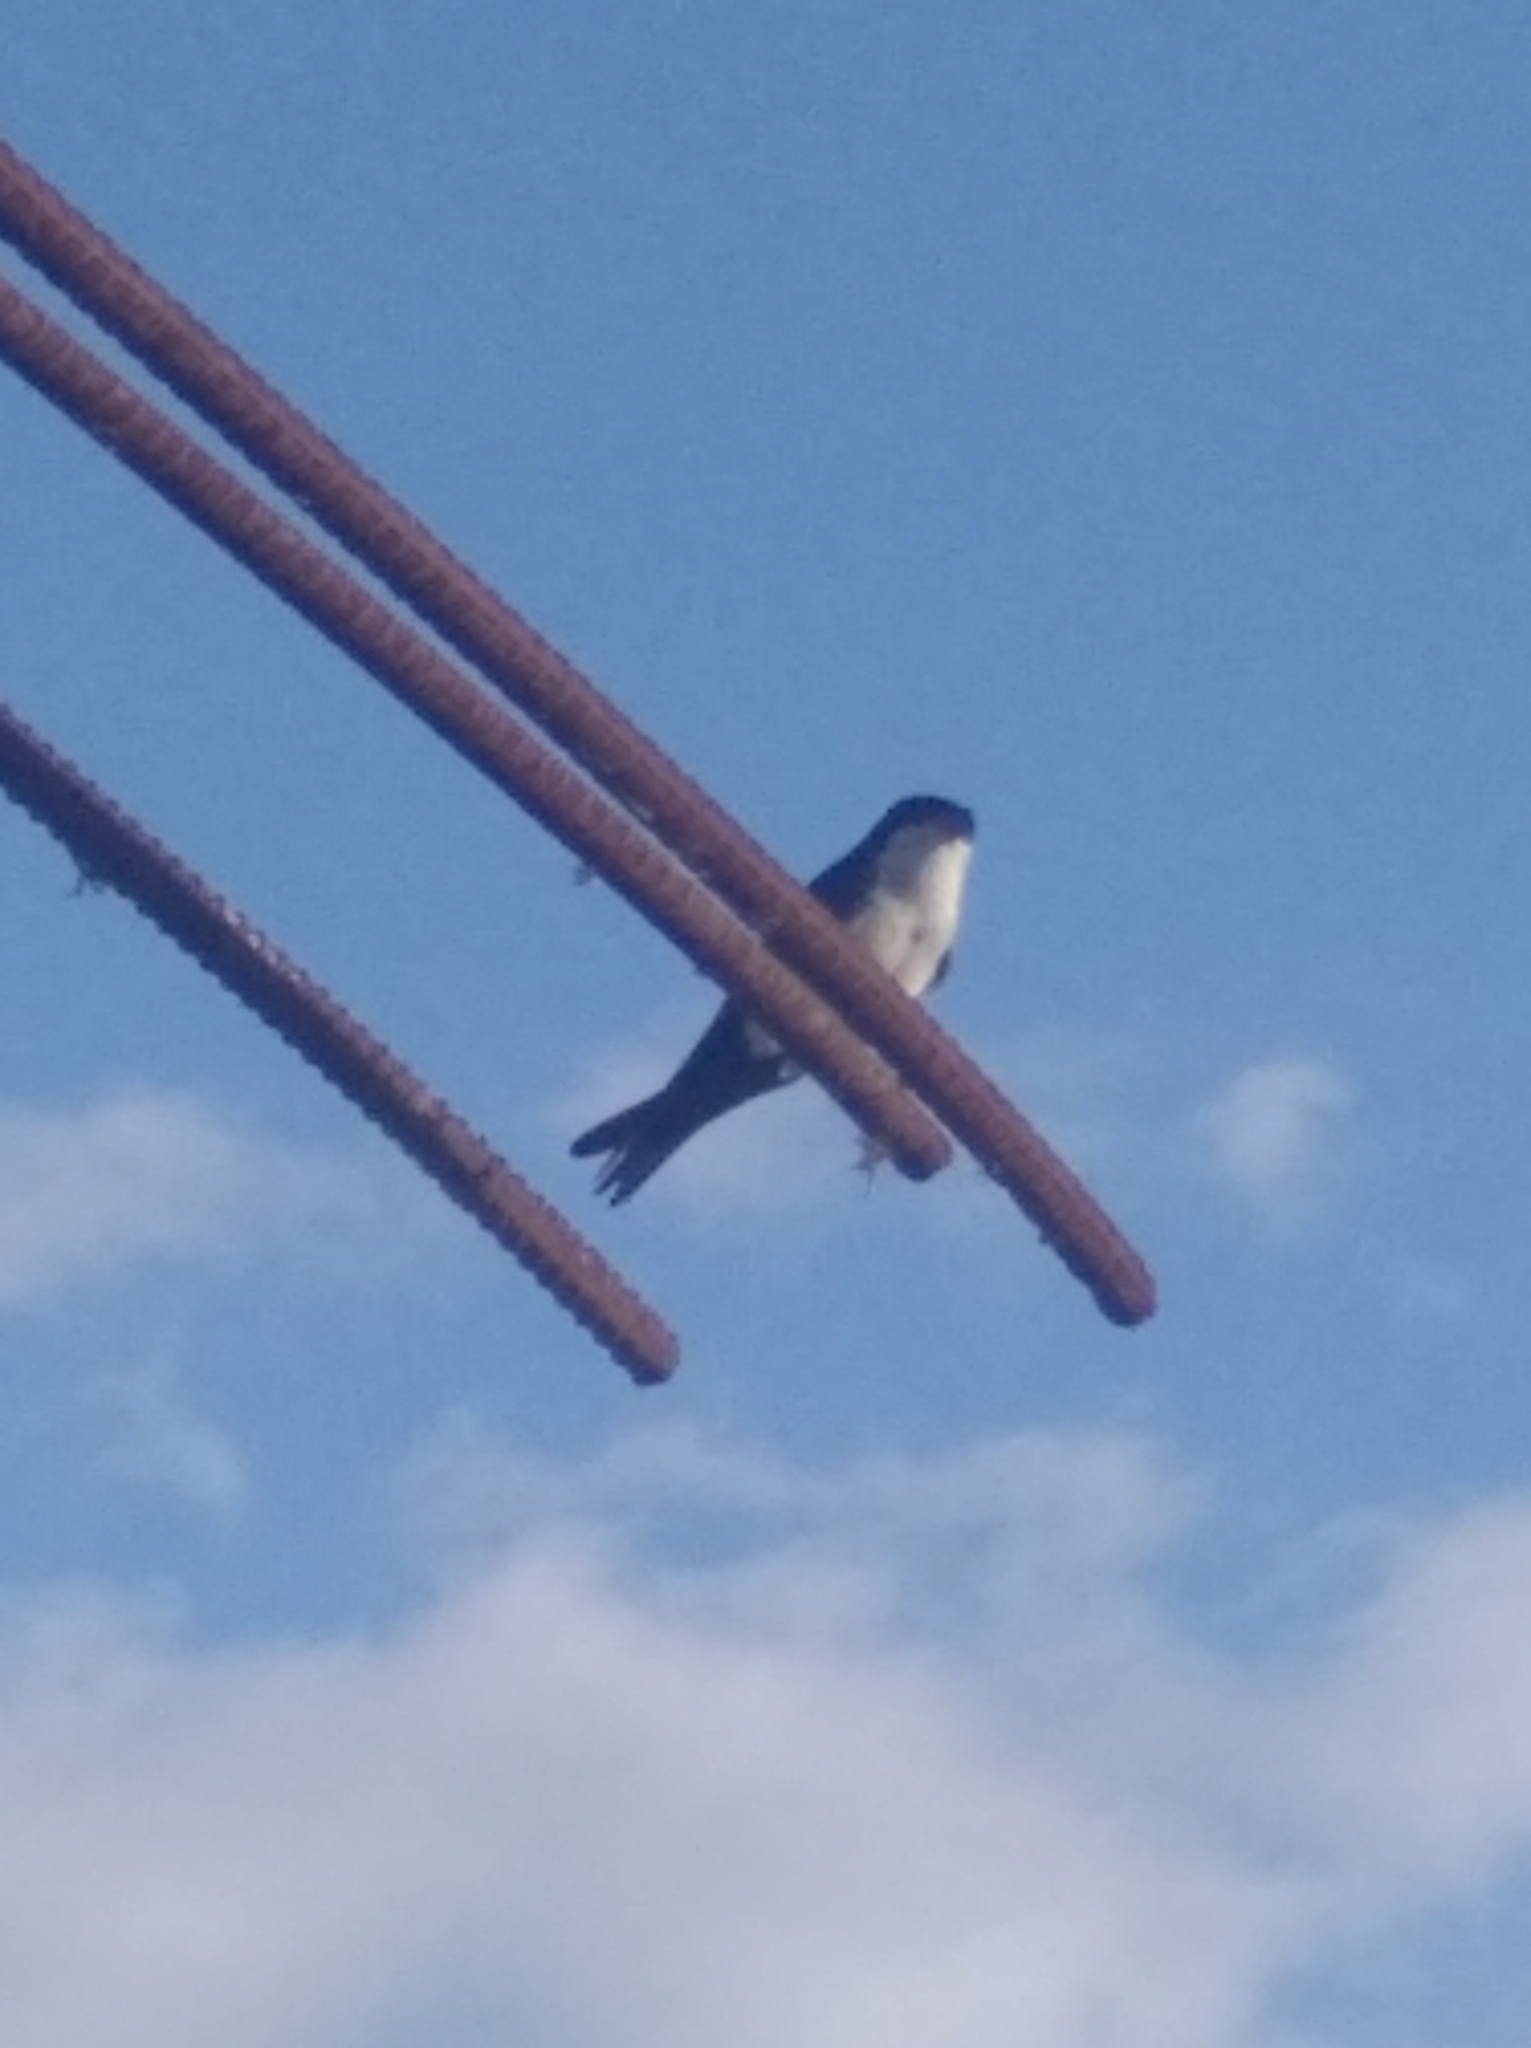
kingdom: Animalia
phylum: Chordata
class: Aves
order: Passeriformes
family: Hirundinidae
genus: Notiochelidon
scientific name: Notiochelidon cyanoleuca
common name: Blue-and-white swallow
